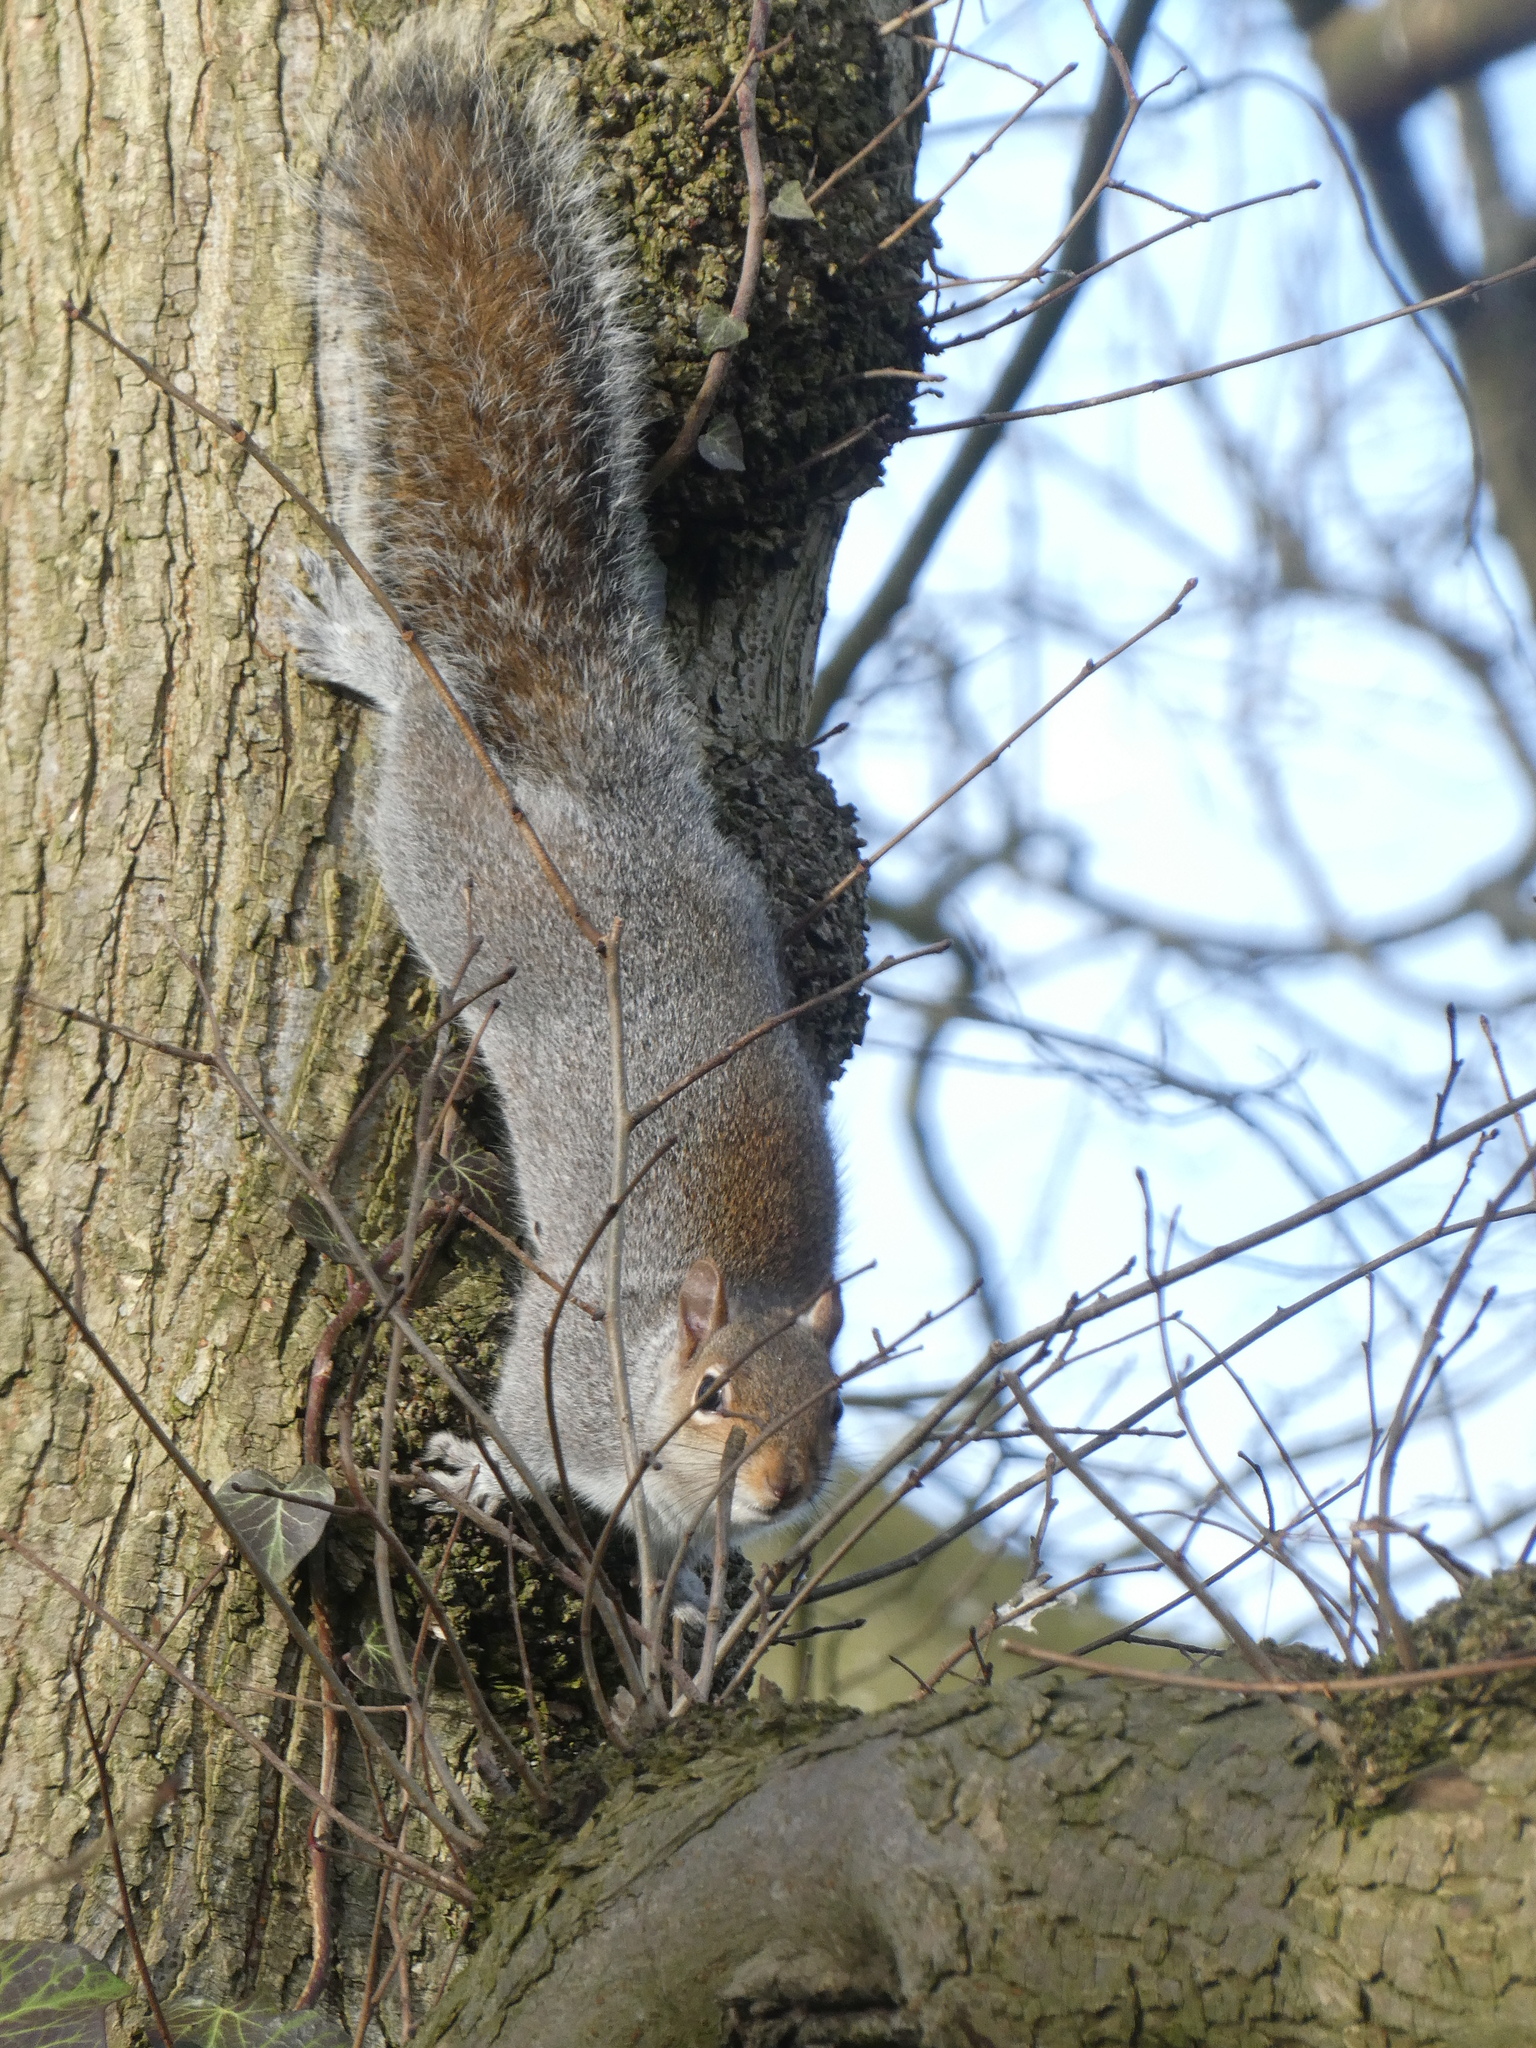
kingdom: Animalia
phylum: Chordata
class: Mammalia
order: Rodentia
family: Sciuridae
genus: Sciurus
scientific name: Sciurus carolinensis
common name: Eastern gray squirrel
